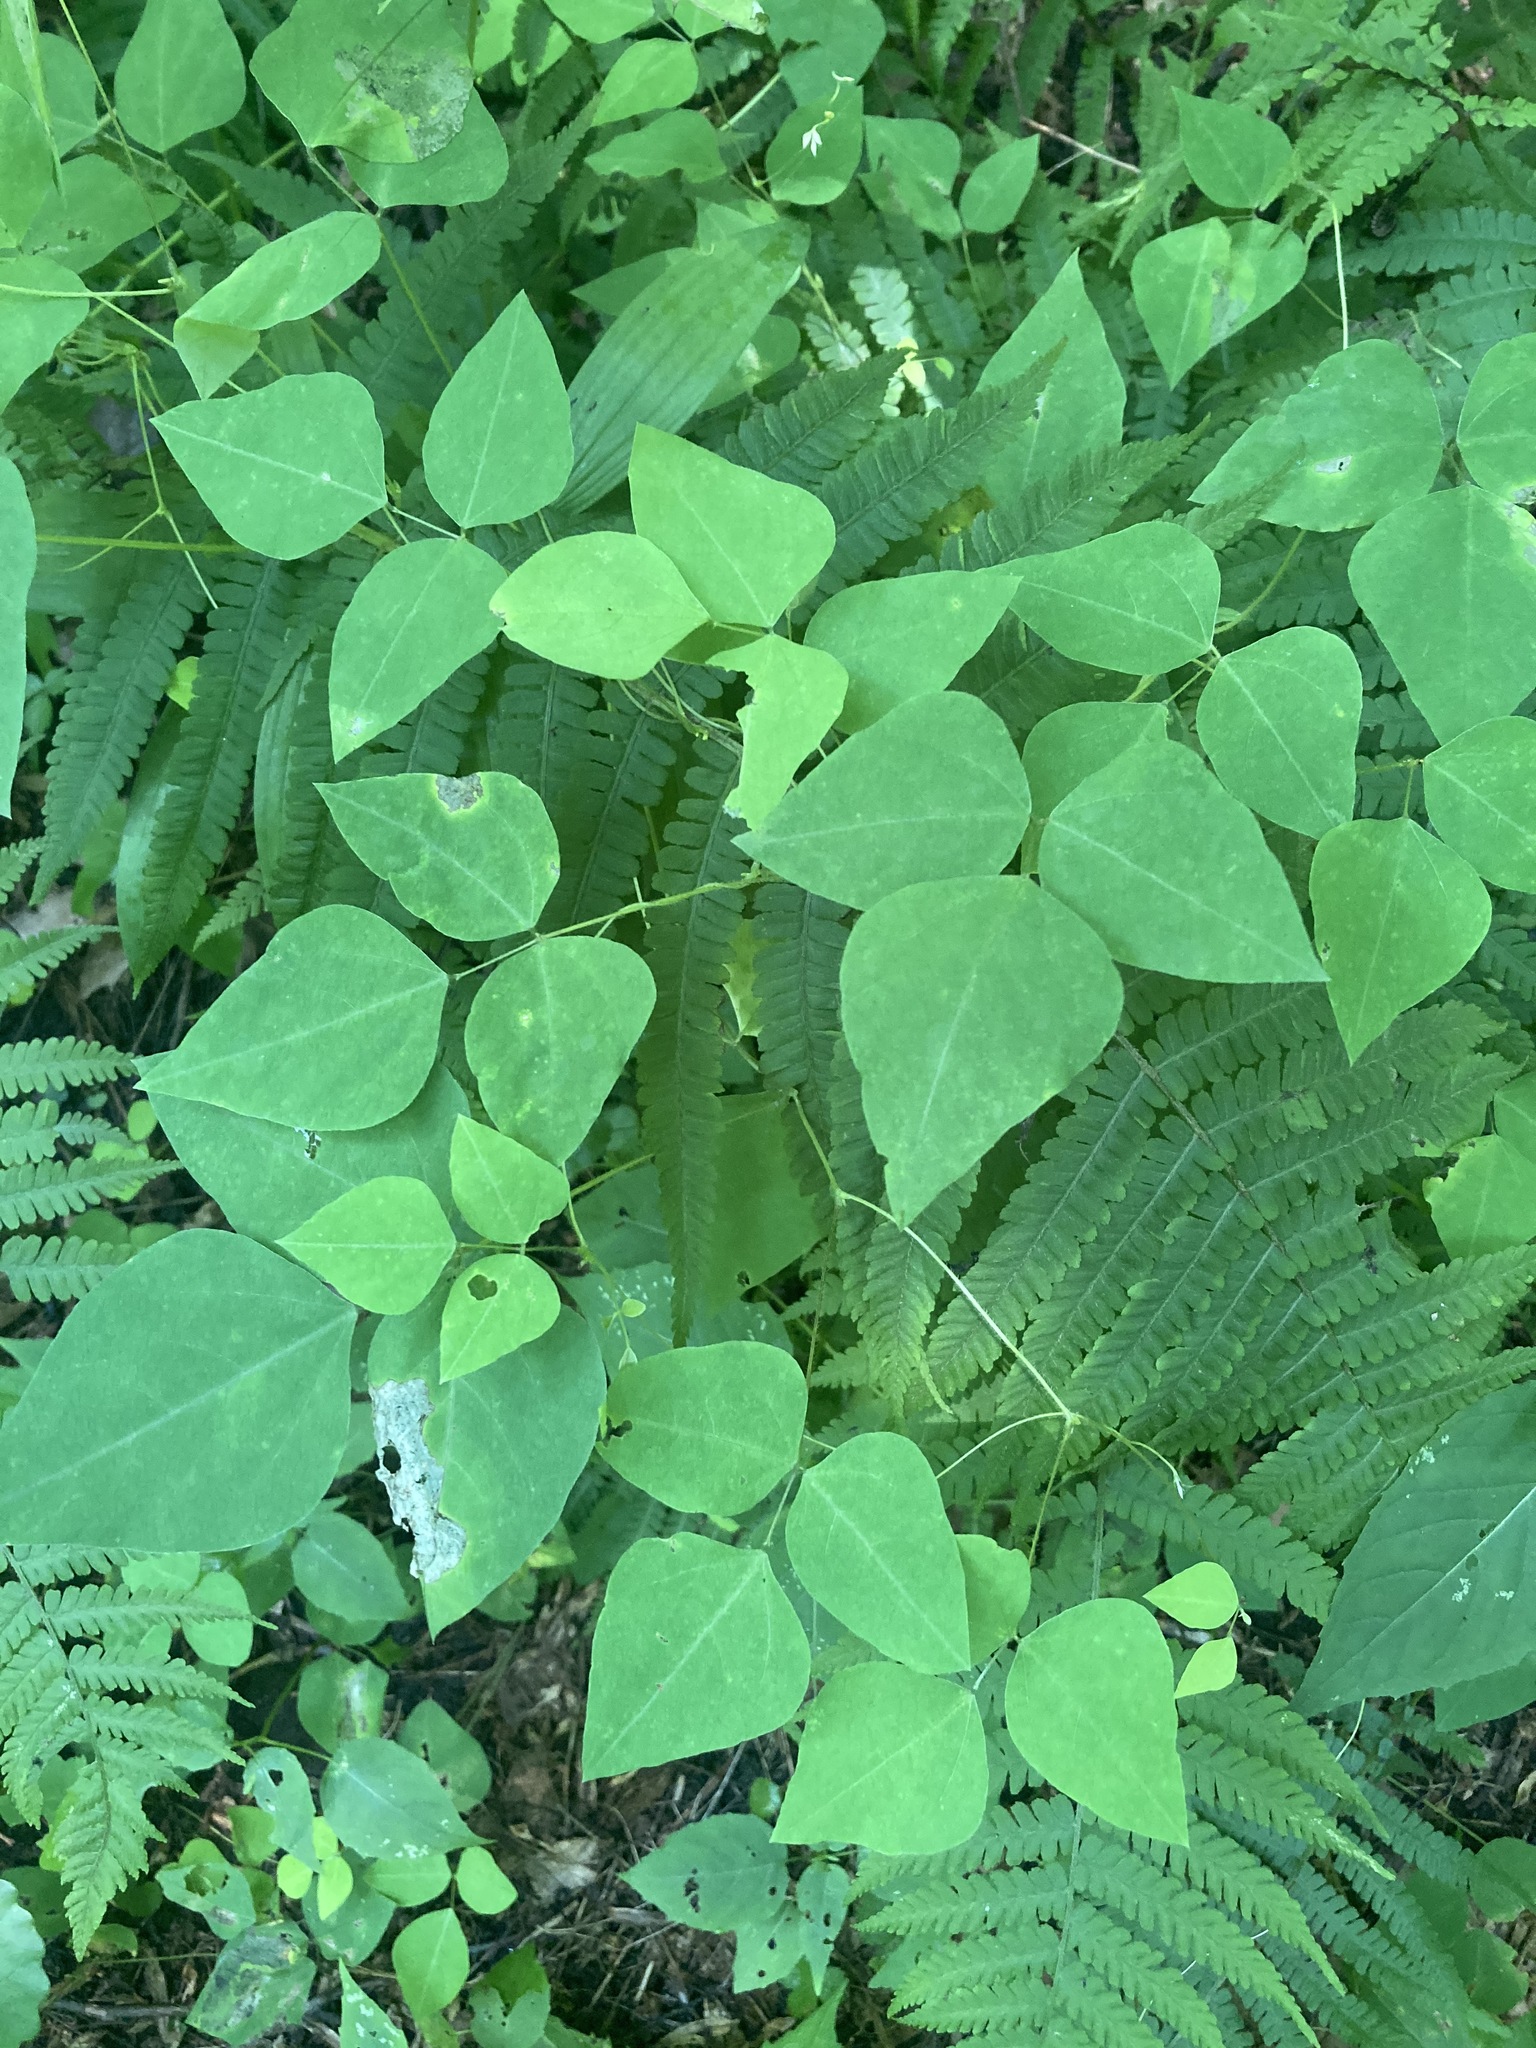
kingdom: Plantae
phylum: Tracheophyta
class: Magnoliopsida
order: Fabales
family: Fabaceae
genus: Amphicarpaea
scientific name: Amphicarpaea bracteata
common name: American hog peanut
